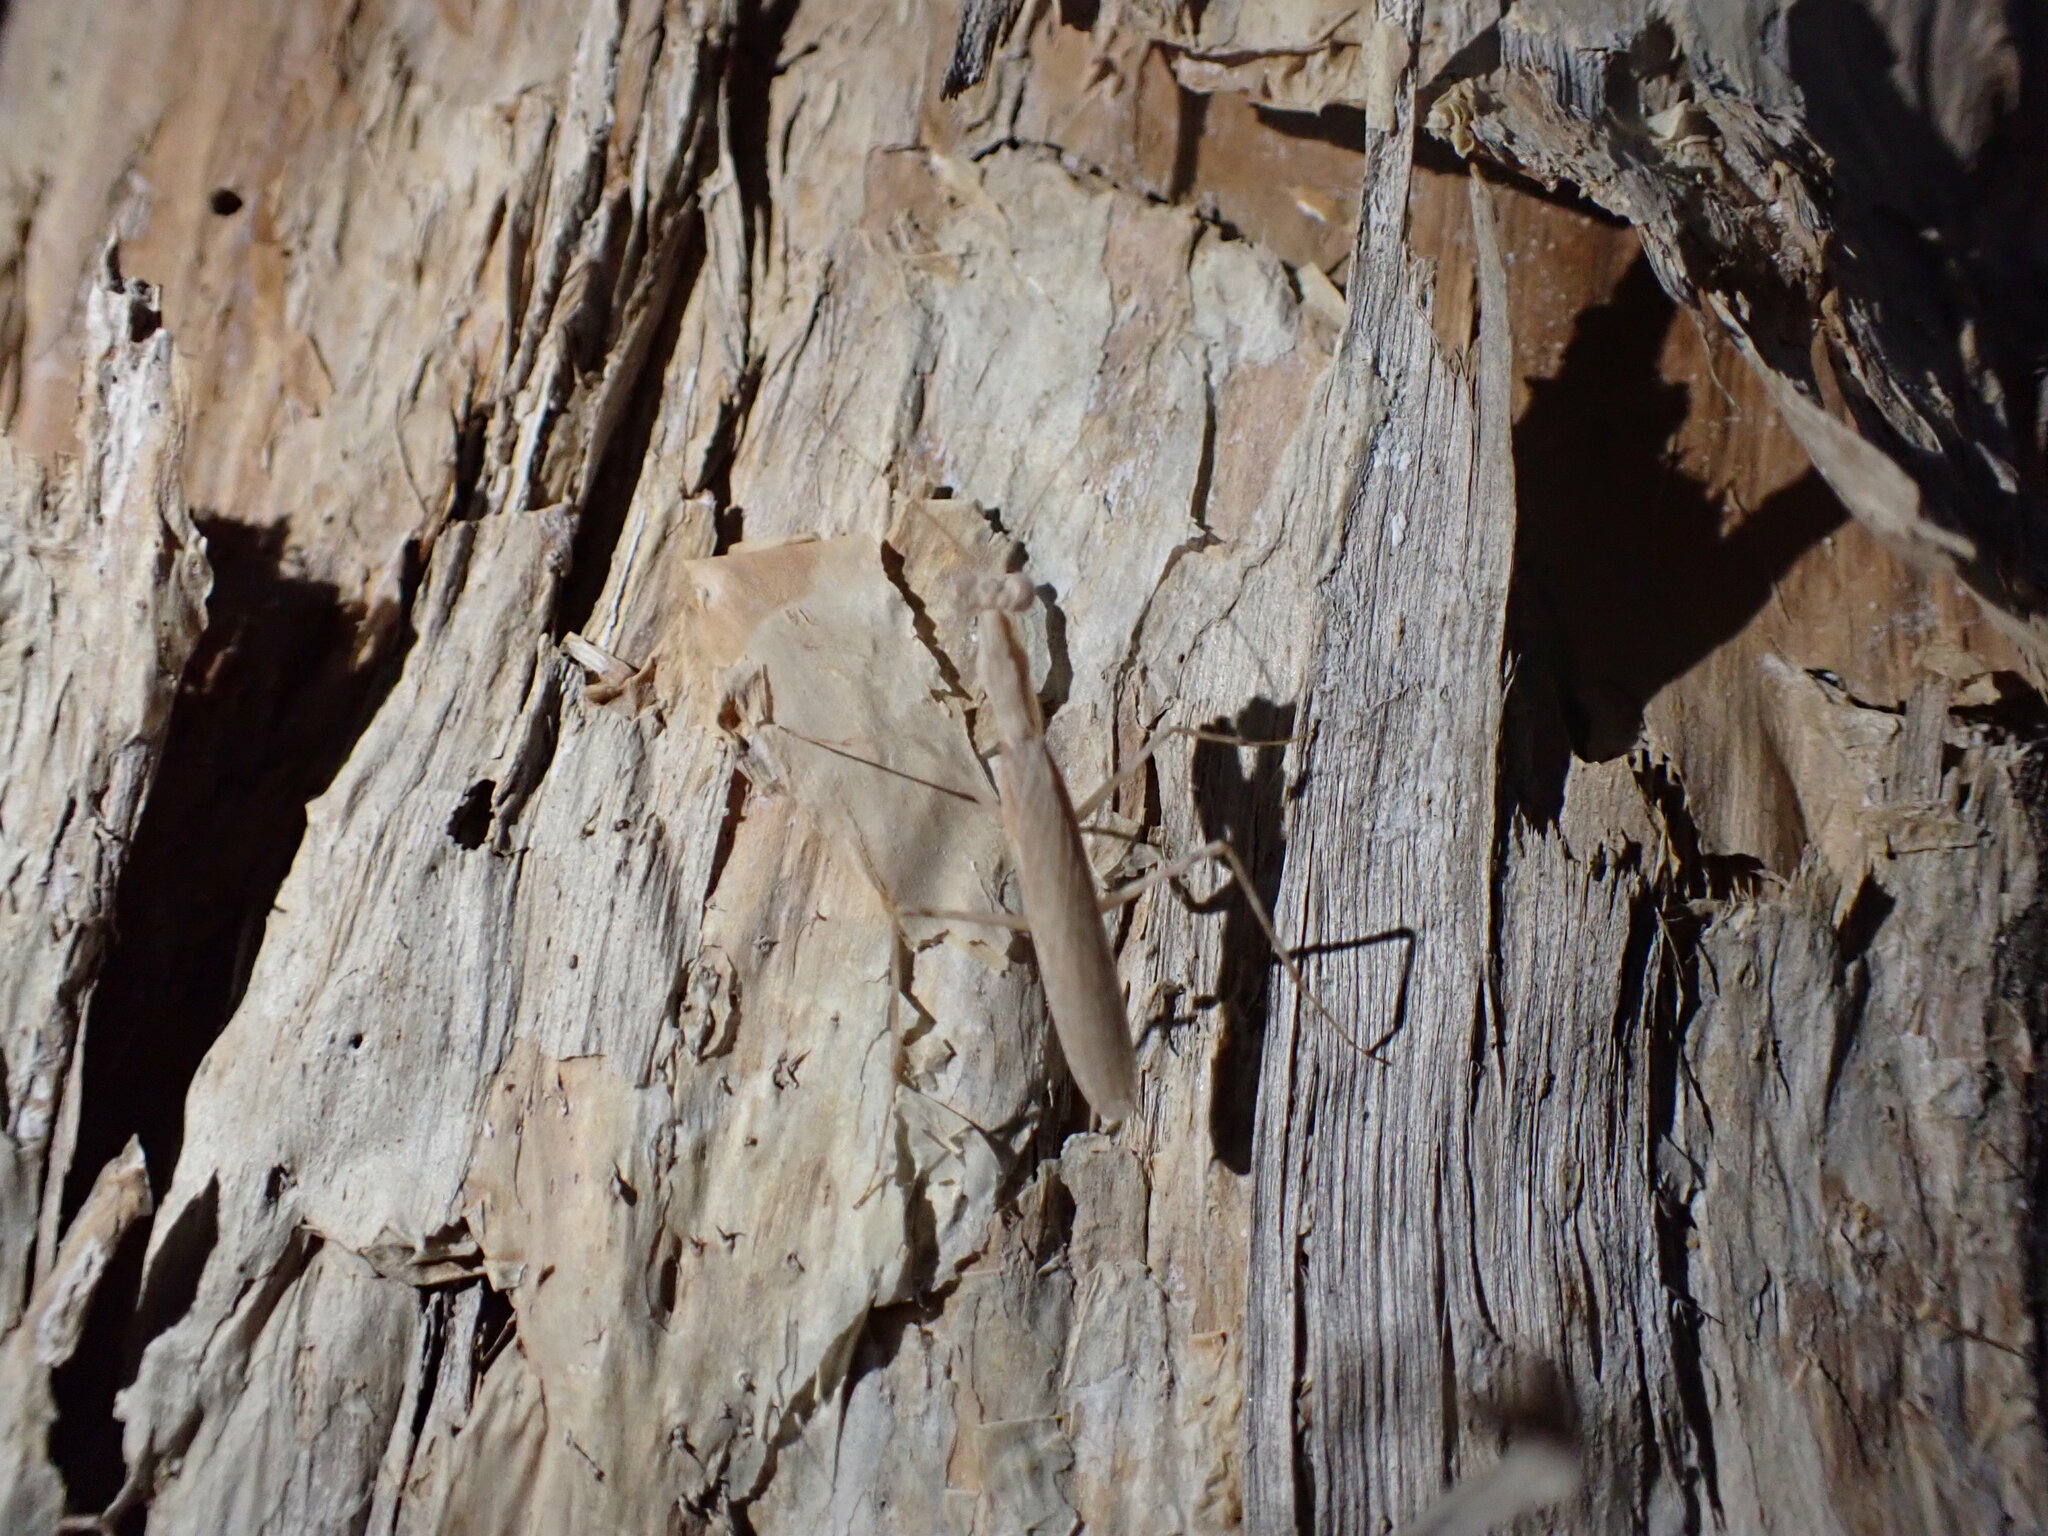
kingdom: Animalia
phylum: Arthropoda
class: Insecta
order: Mantodea
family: Nanomantidae
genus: Ima
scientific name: Ima fusca
